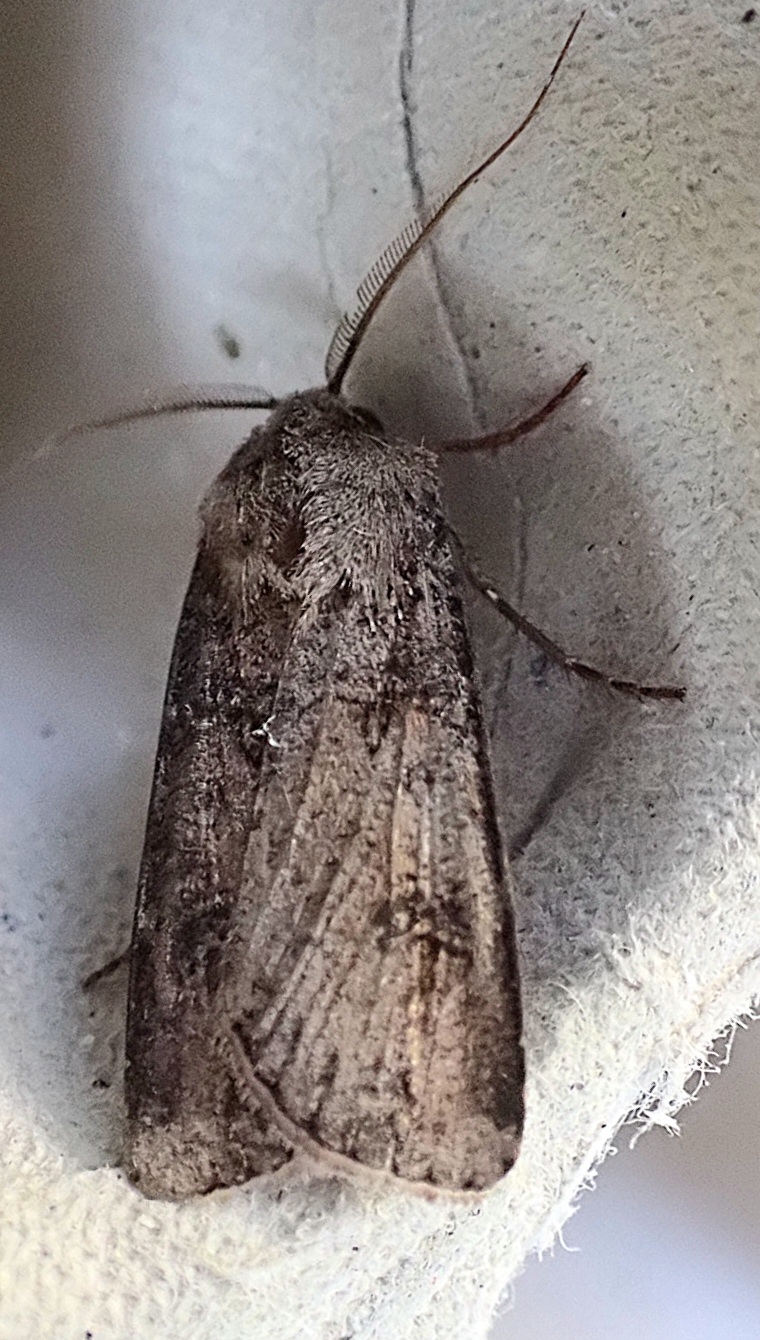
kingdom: Animalia
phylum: Arthropoda
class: Insecta
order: Lepidoptera
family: Noctuidae
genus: Agrotis
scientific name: Agrotis segetum
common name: Turnip moth
